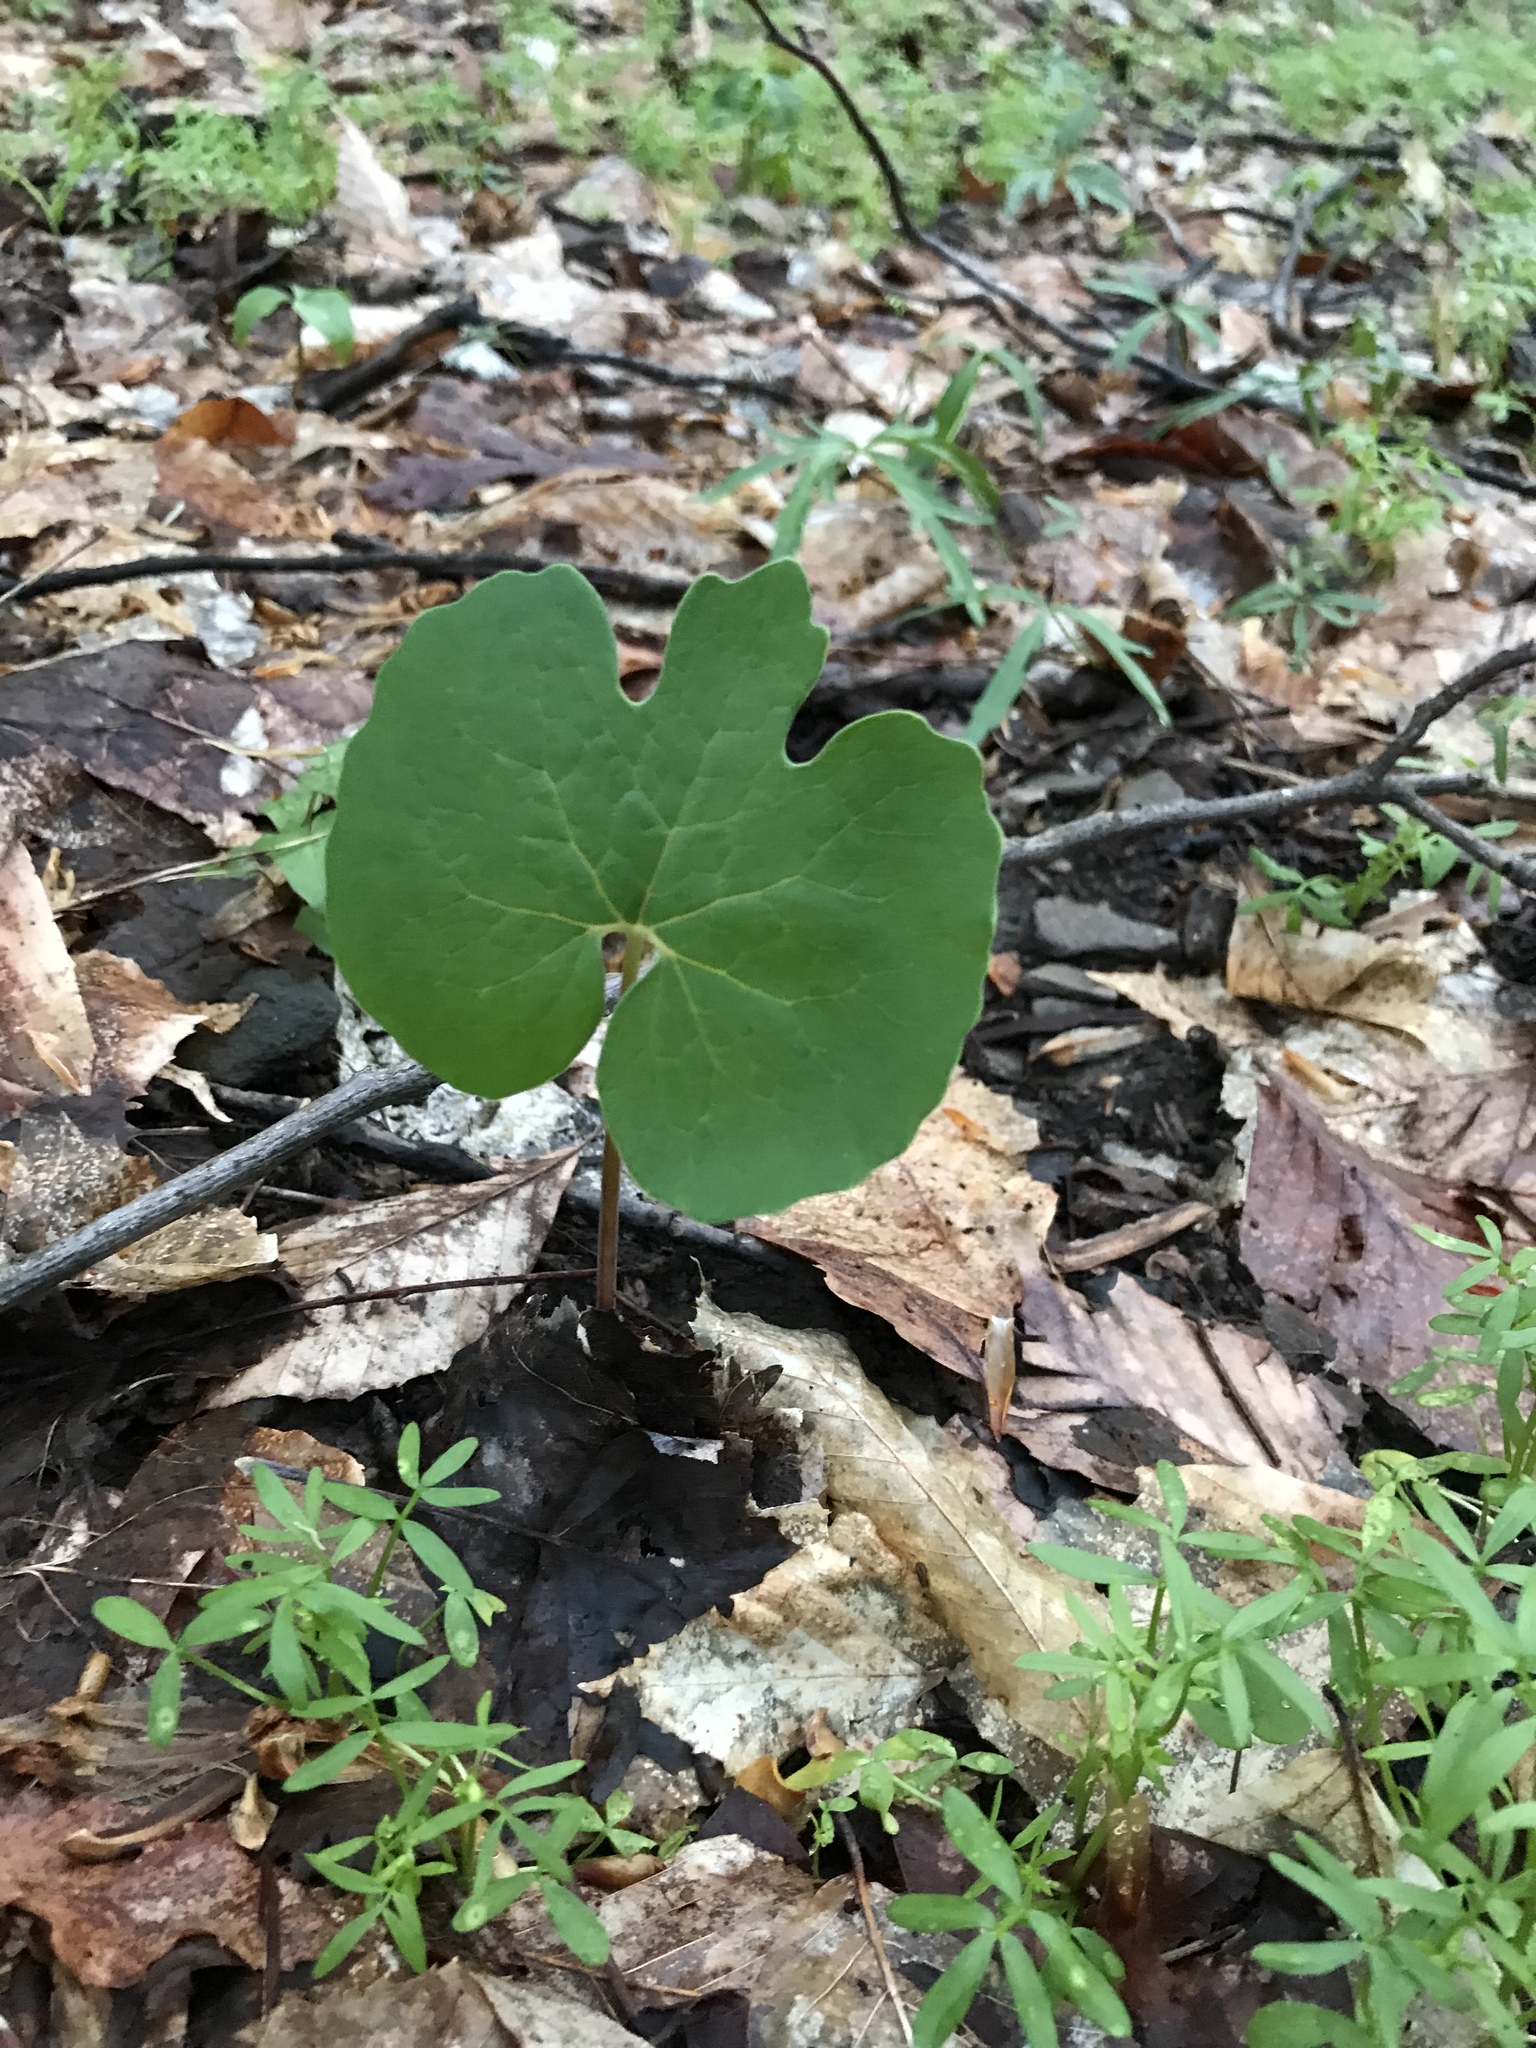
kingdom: Plantae
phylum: Tracheophyta
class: Magnoliopsida
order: Ranunculales
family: Papaveraceae
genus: Sanguinaria
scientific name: Sanguinaria canadensis
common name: Bloodroot
